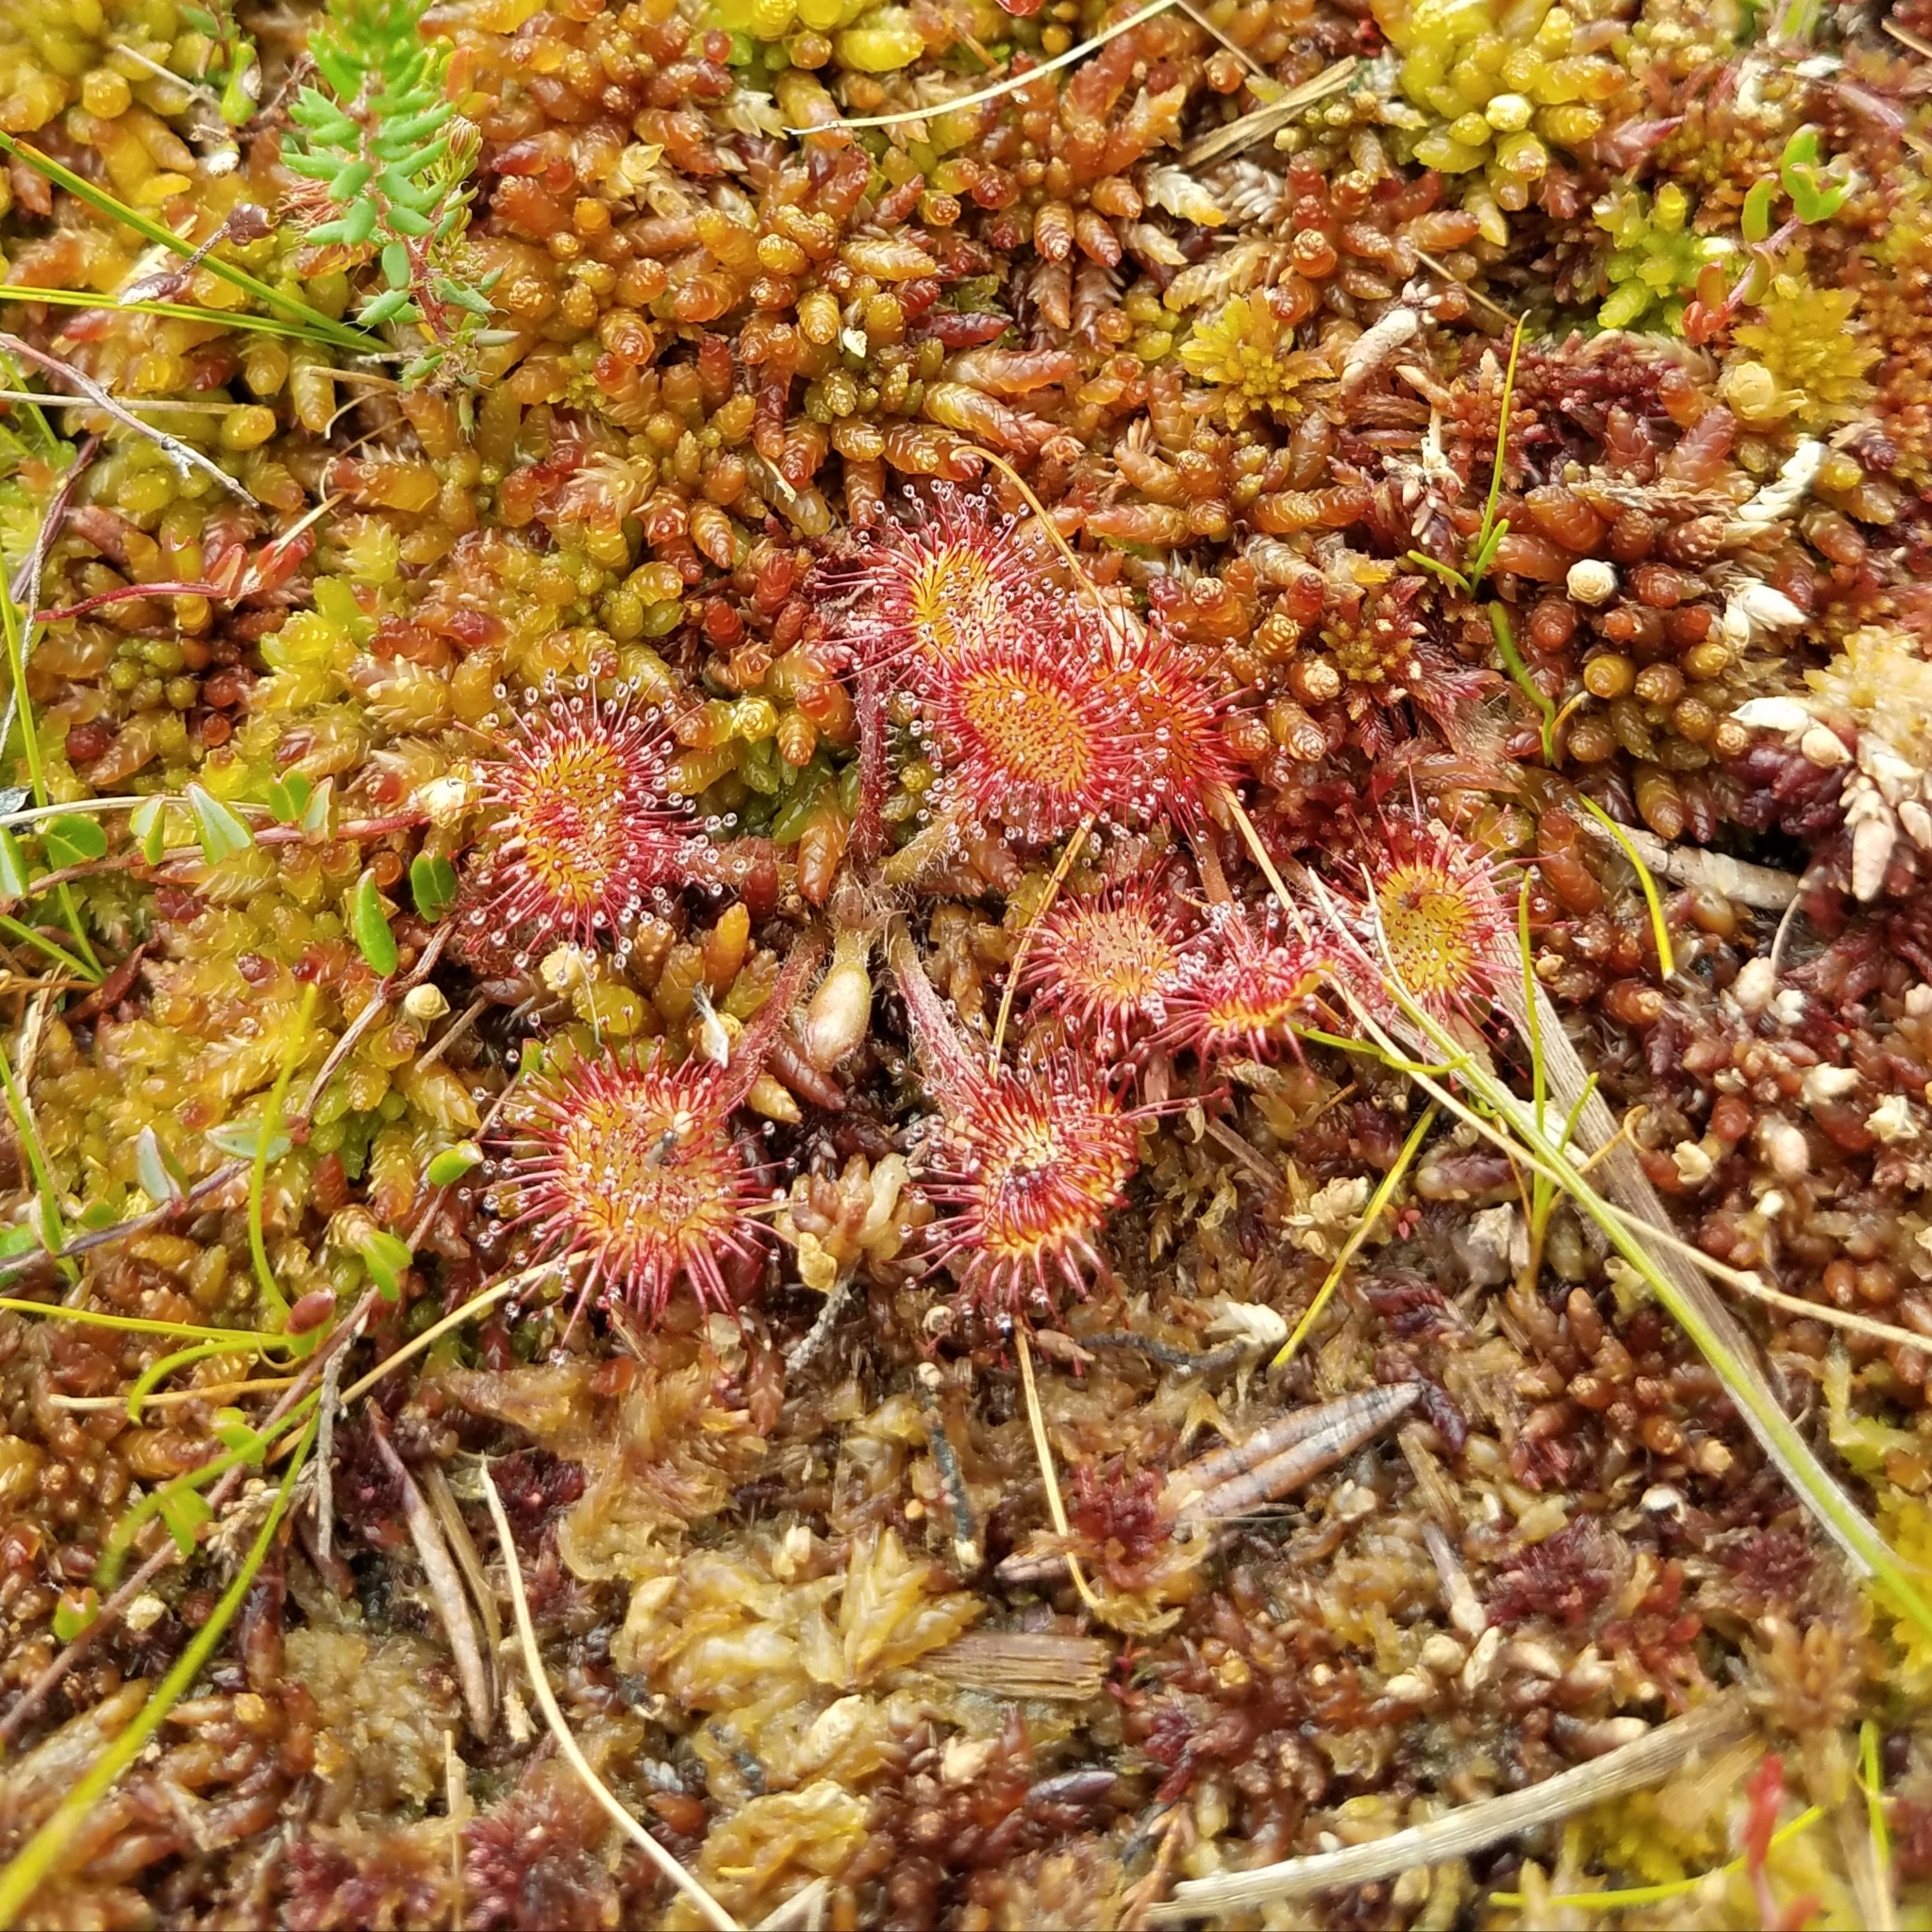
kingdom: Plantae
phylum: Tracheophyta
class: Magnoliopsida
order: Caryophyllales
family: Droseraceae
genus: Drosera
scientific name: Drosera rotundifolia
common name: Round-leaved sundew
